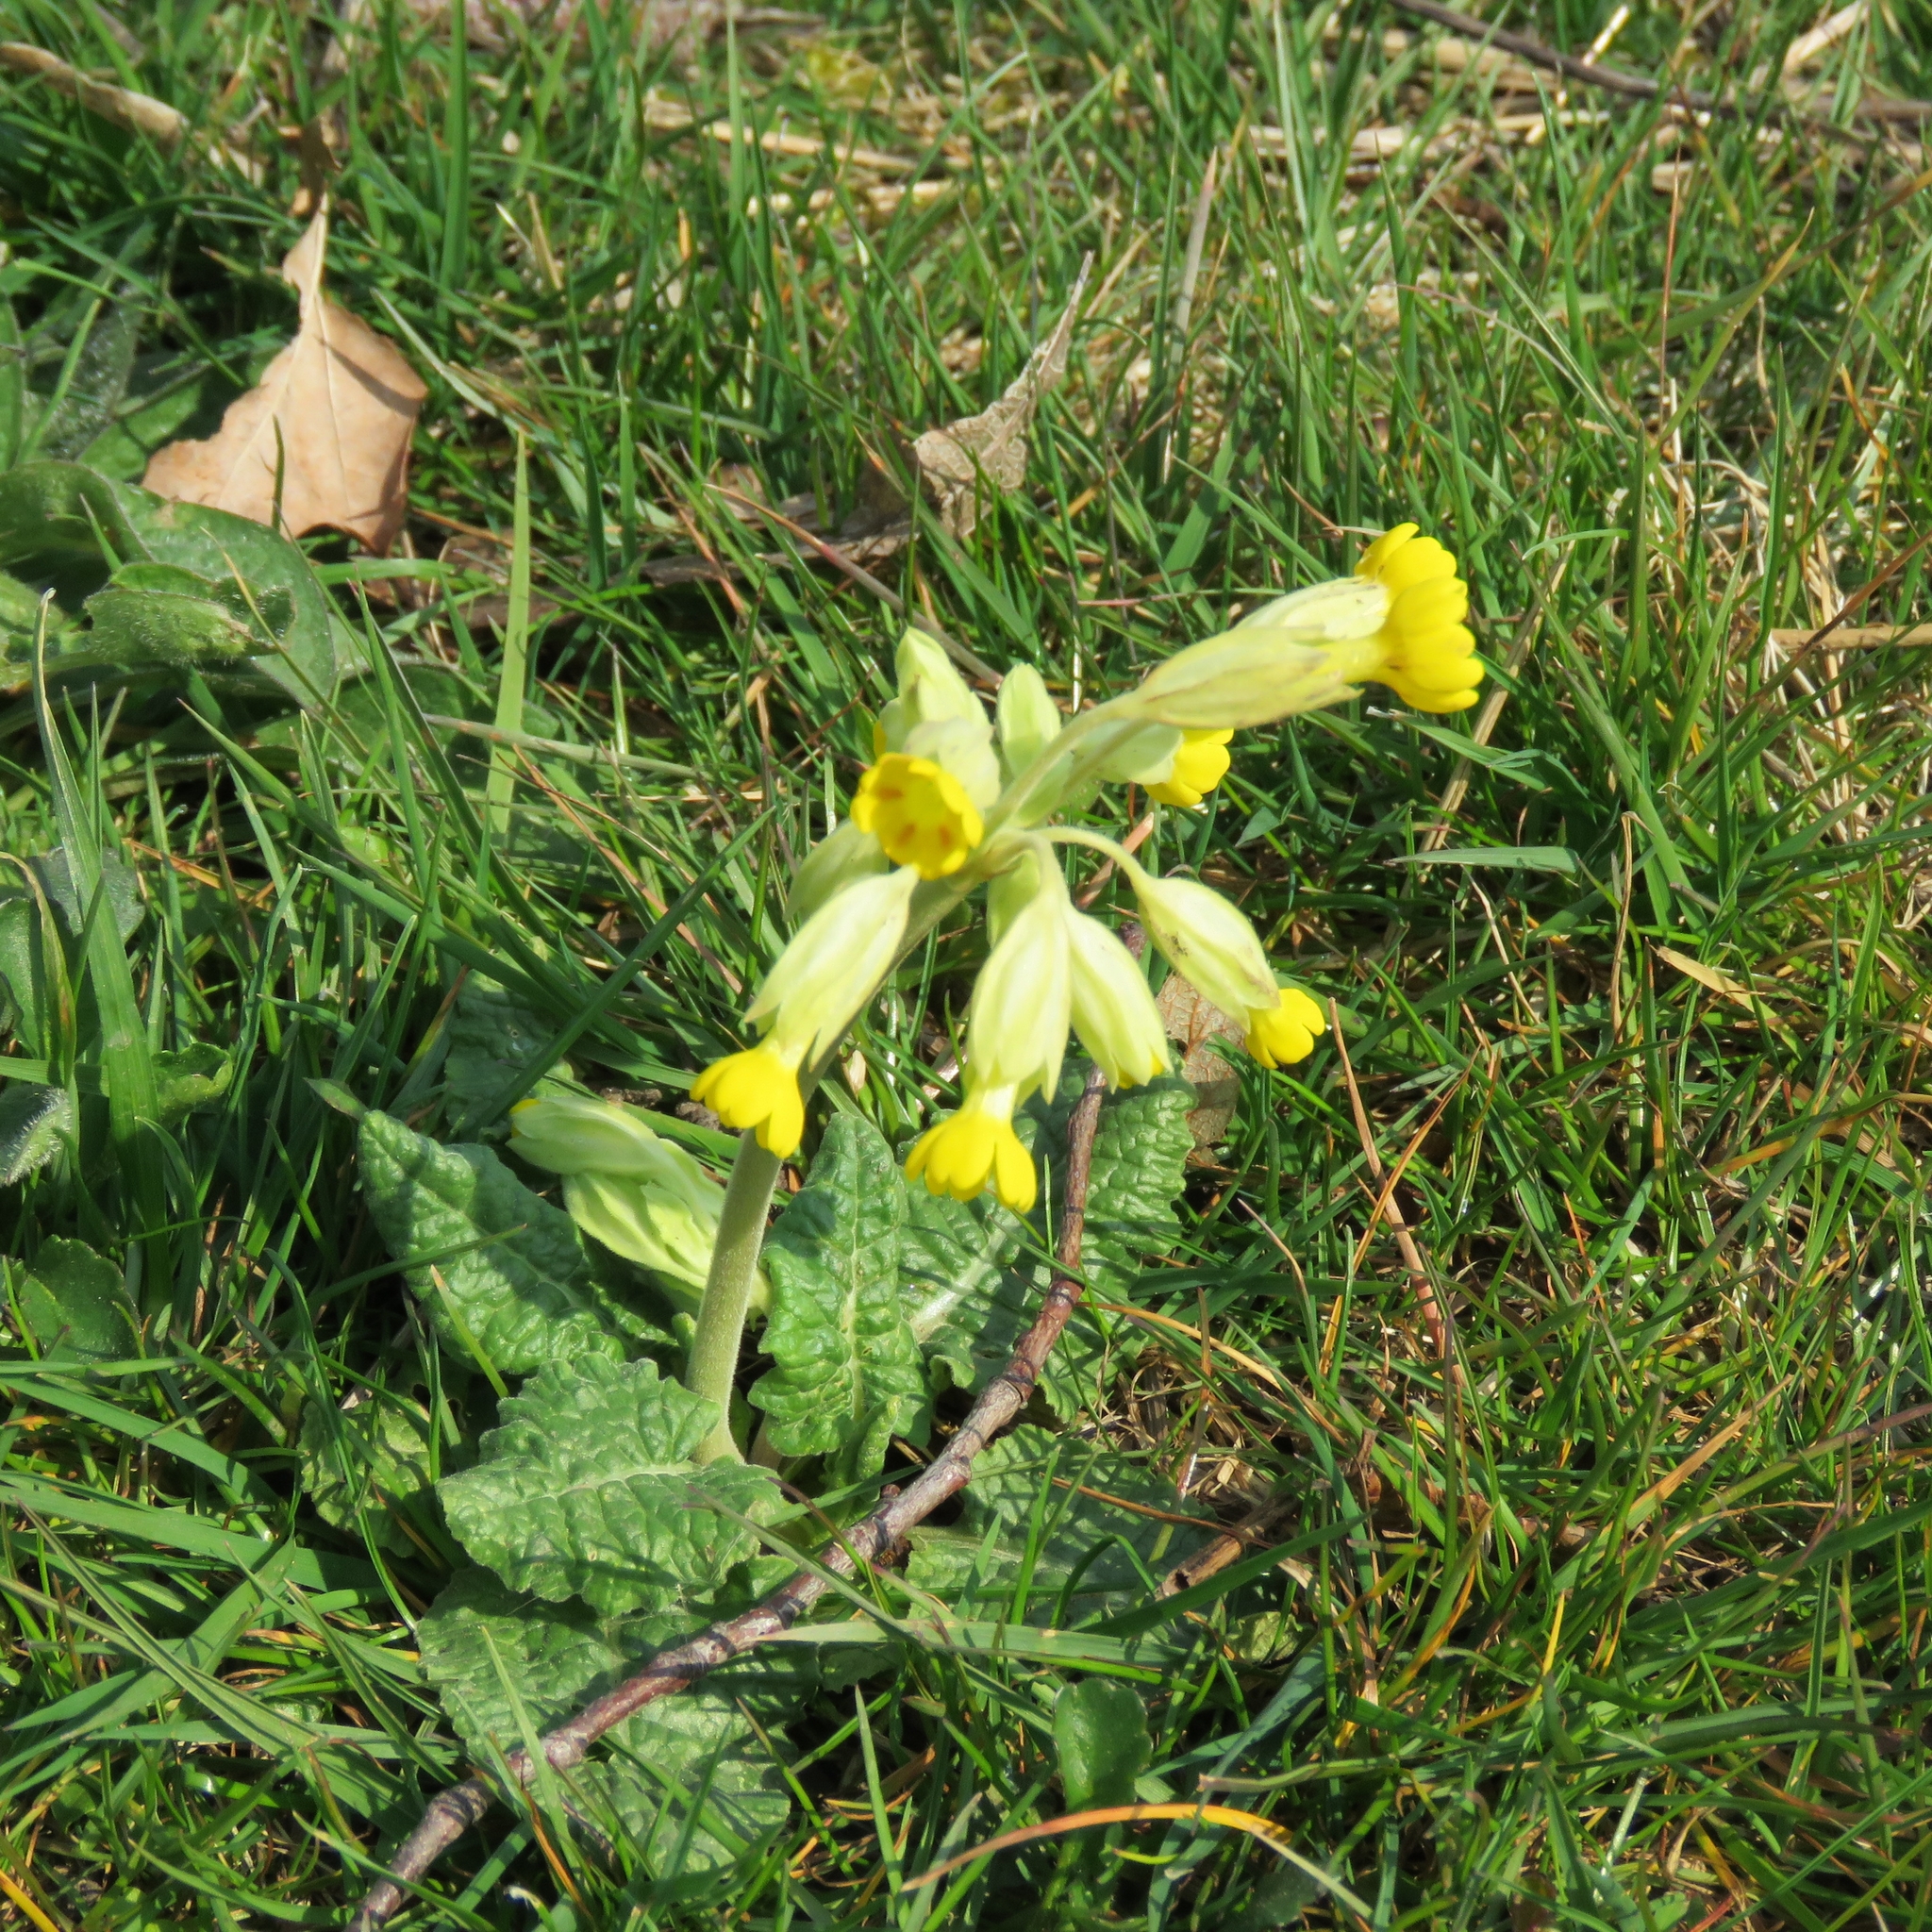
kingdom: Plantae
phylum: Tracheophyta
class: Magnoliopsida
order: Ericales
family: Primulaceae
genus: Primula
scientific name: Primula veris
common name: Cowslip
